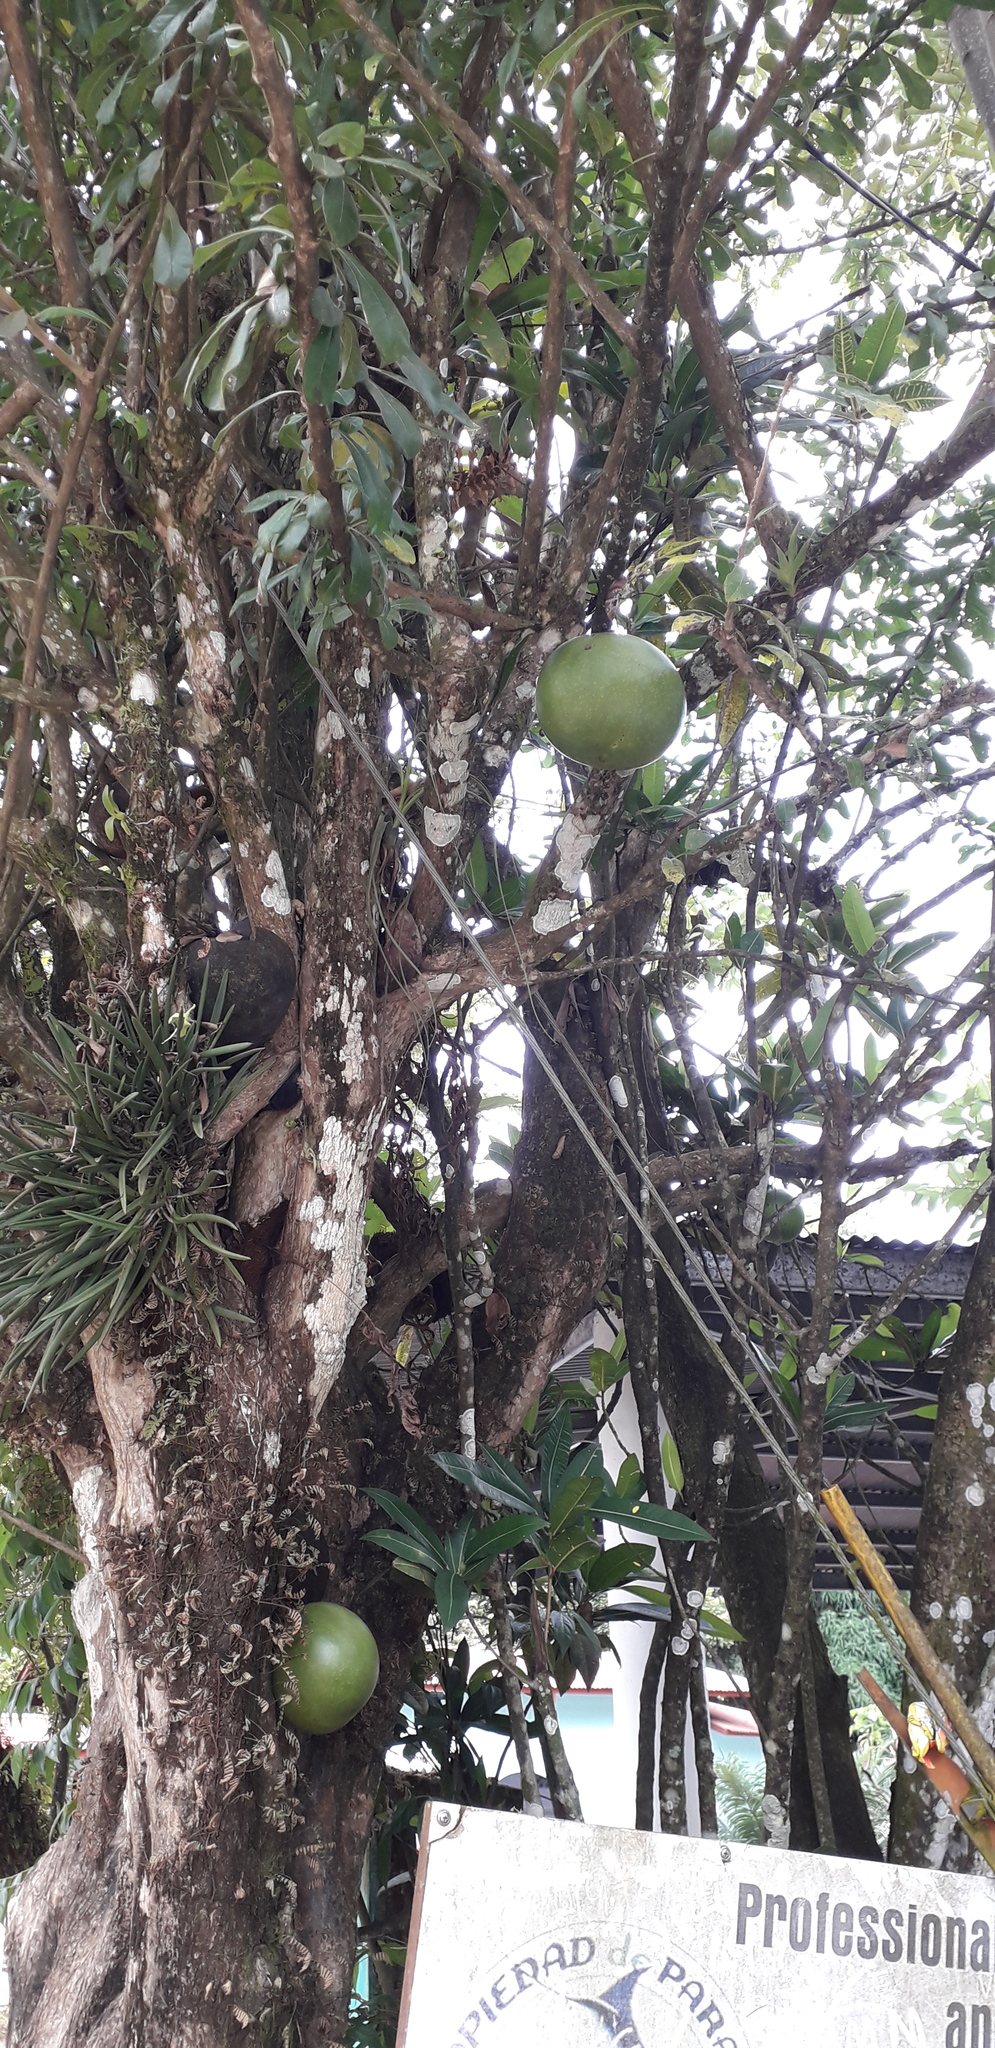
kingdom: Plantae
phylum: Tracheophyta
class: Magnoliopsida
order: Lamiales
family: Bignoniaceae
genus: Crescentia
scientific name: Crescentia cujete
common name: Calabash
